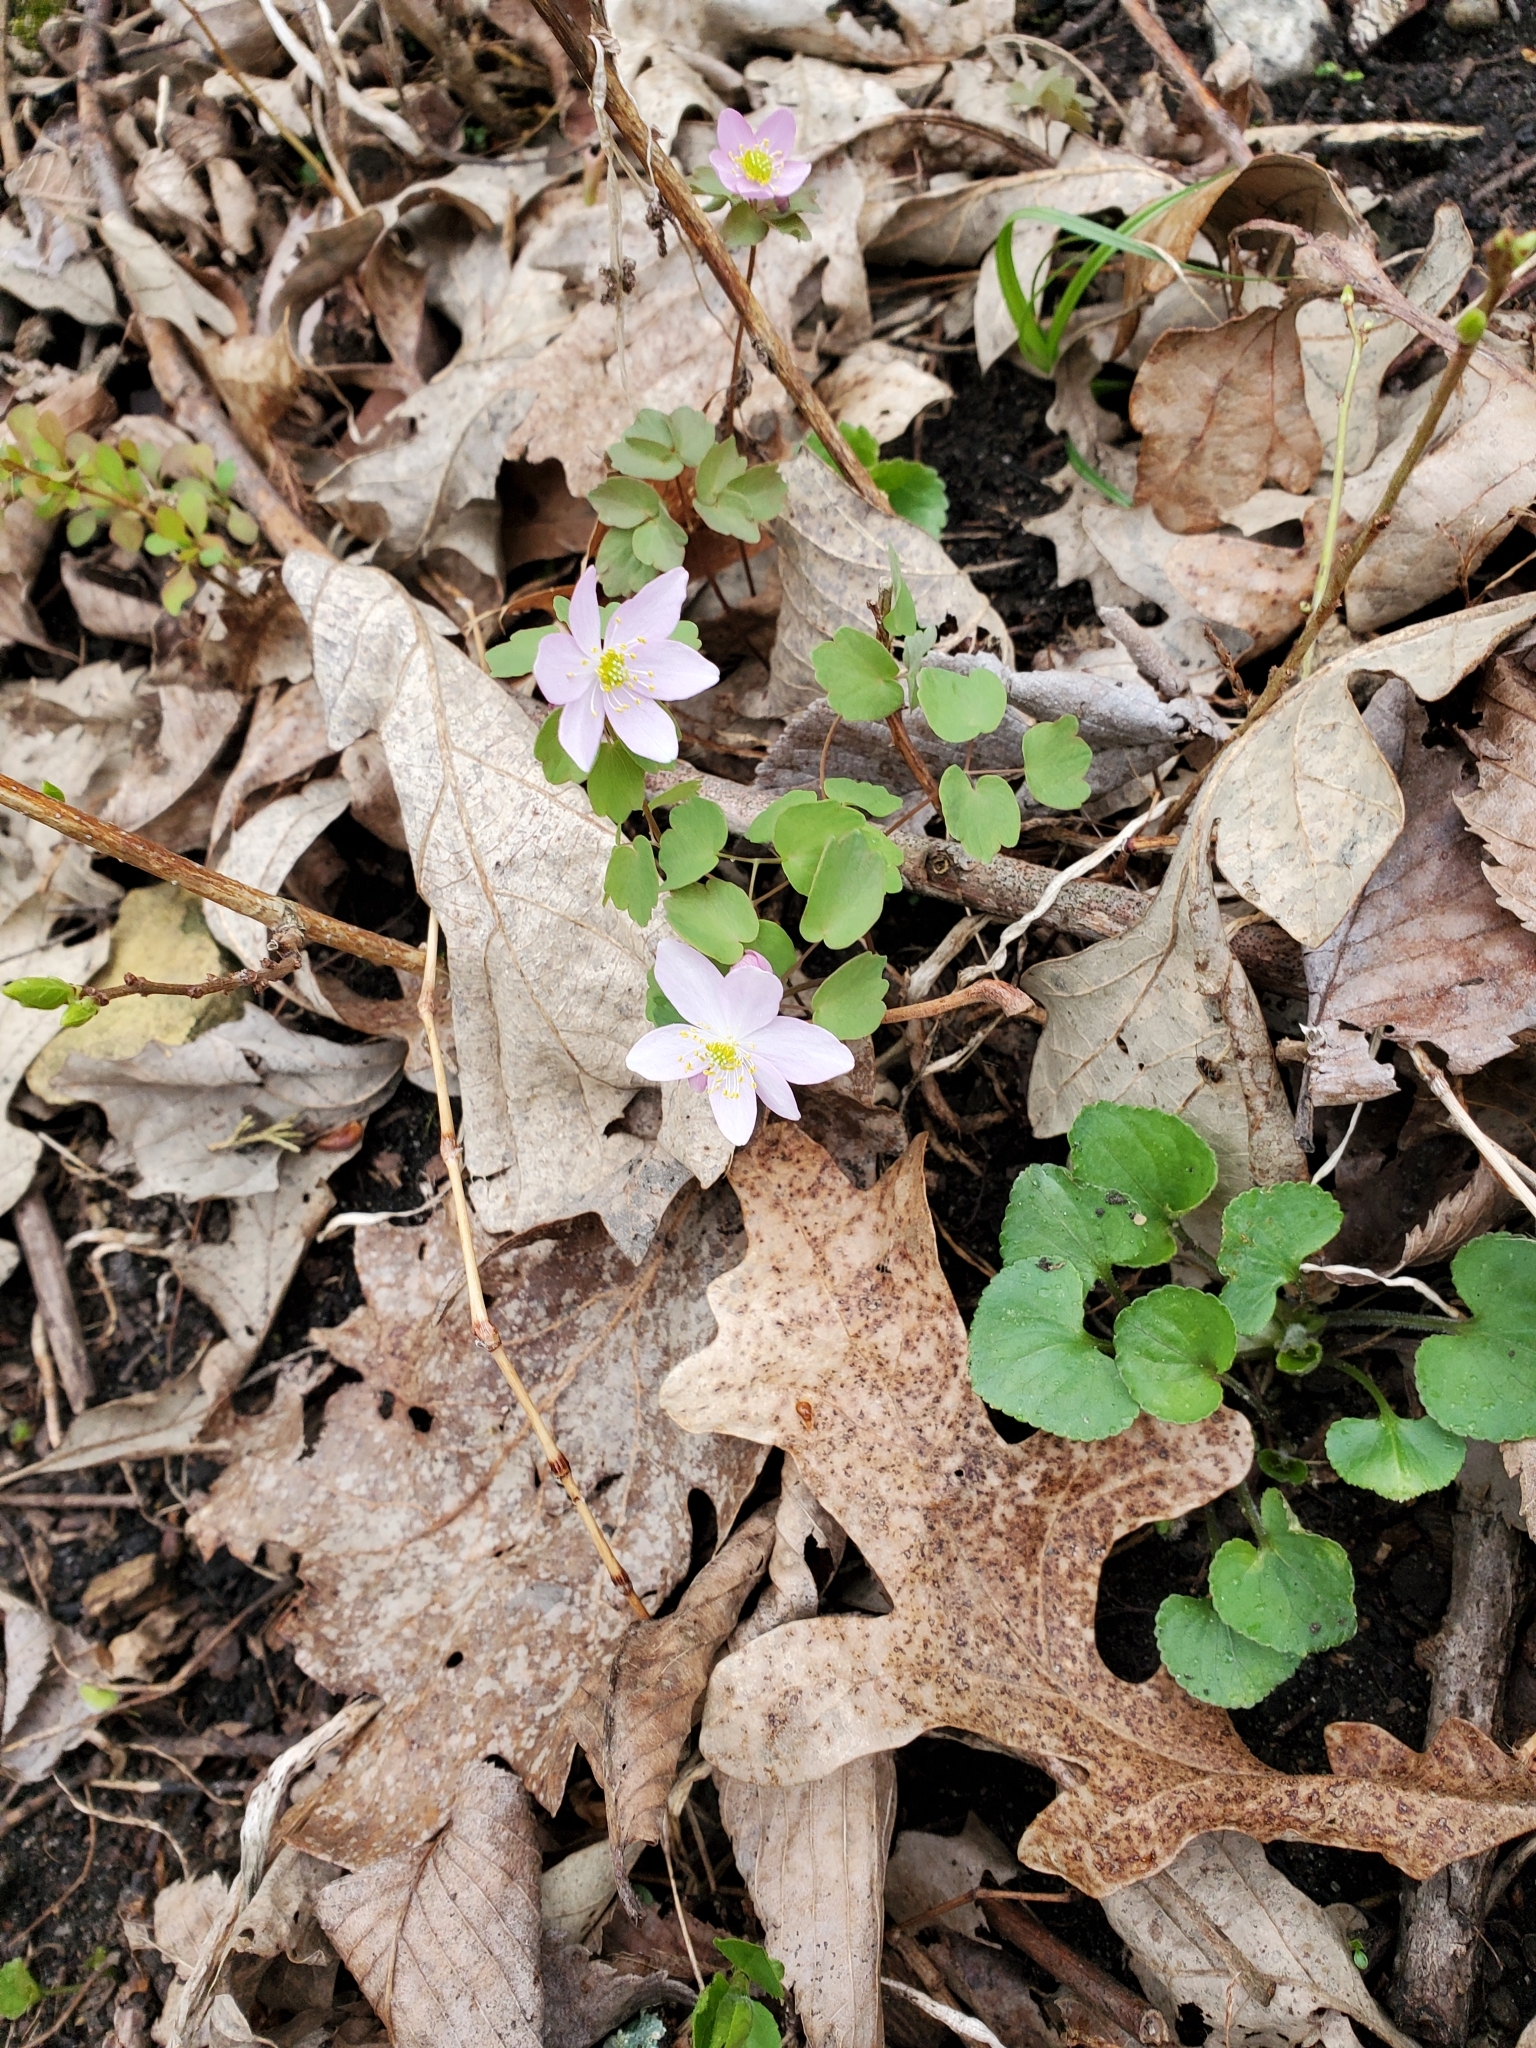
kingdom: Plantae
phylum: Tracheophyta
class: Magnoliopsida
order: Ranunculales
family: Ranunculaceae
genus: Thalictrum
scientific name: Thalictrum thalictroides
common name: Rue-anemone
